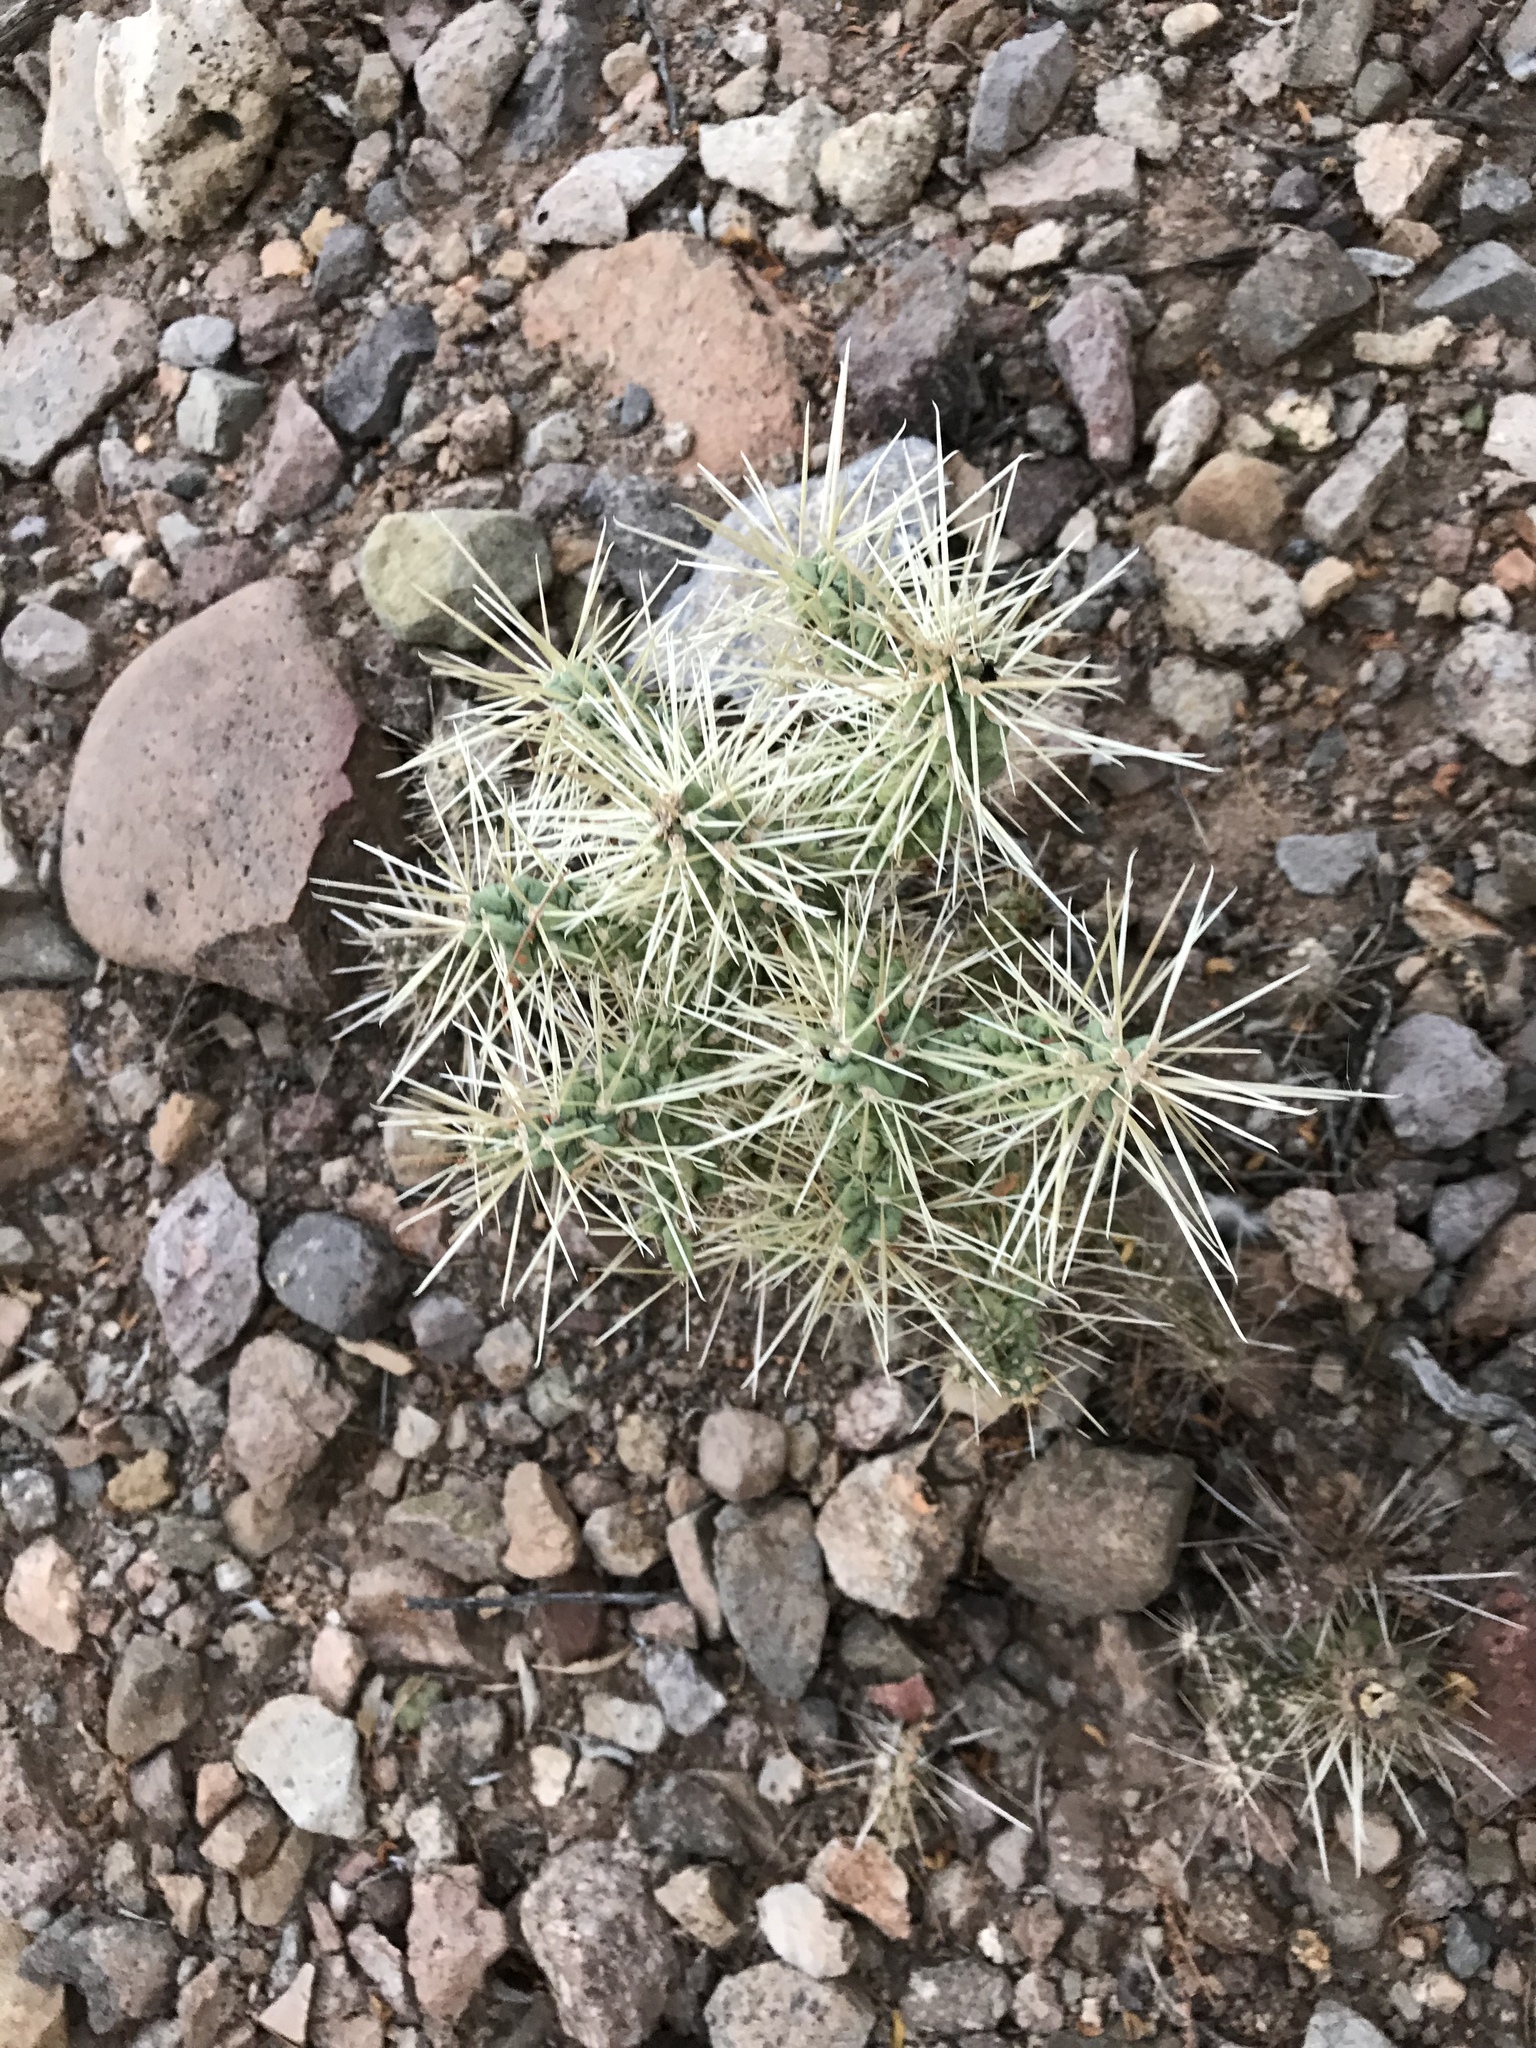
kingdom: Plantae
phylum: Tracheophyta
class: Magnoliopsida
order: Caryophyllales
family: Cactaceae
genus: Cylindropuntia
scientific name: Cylindropuntia fulgida
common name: Jumping cholla
